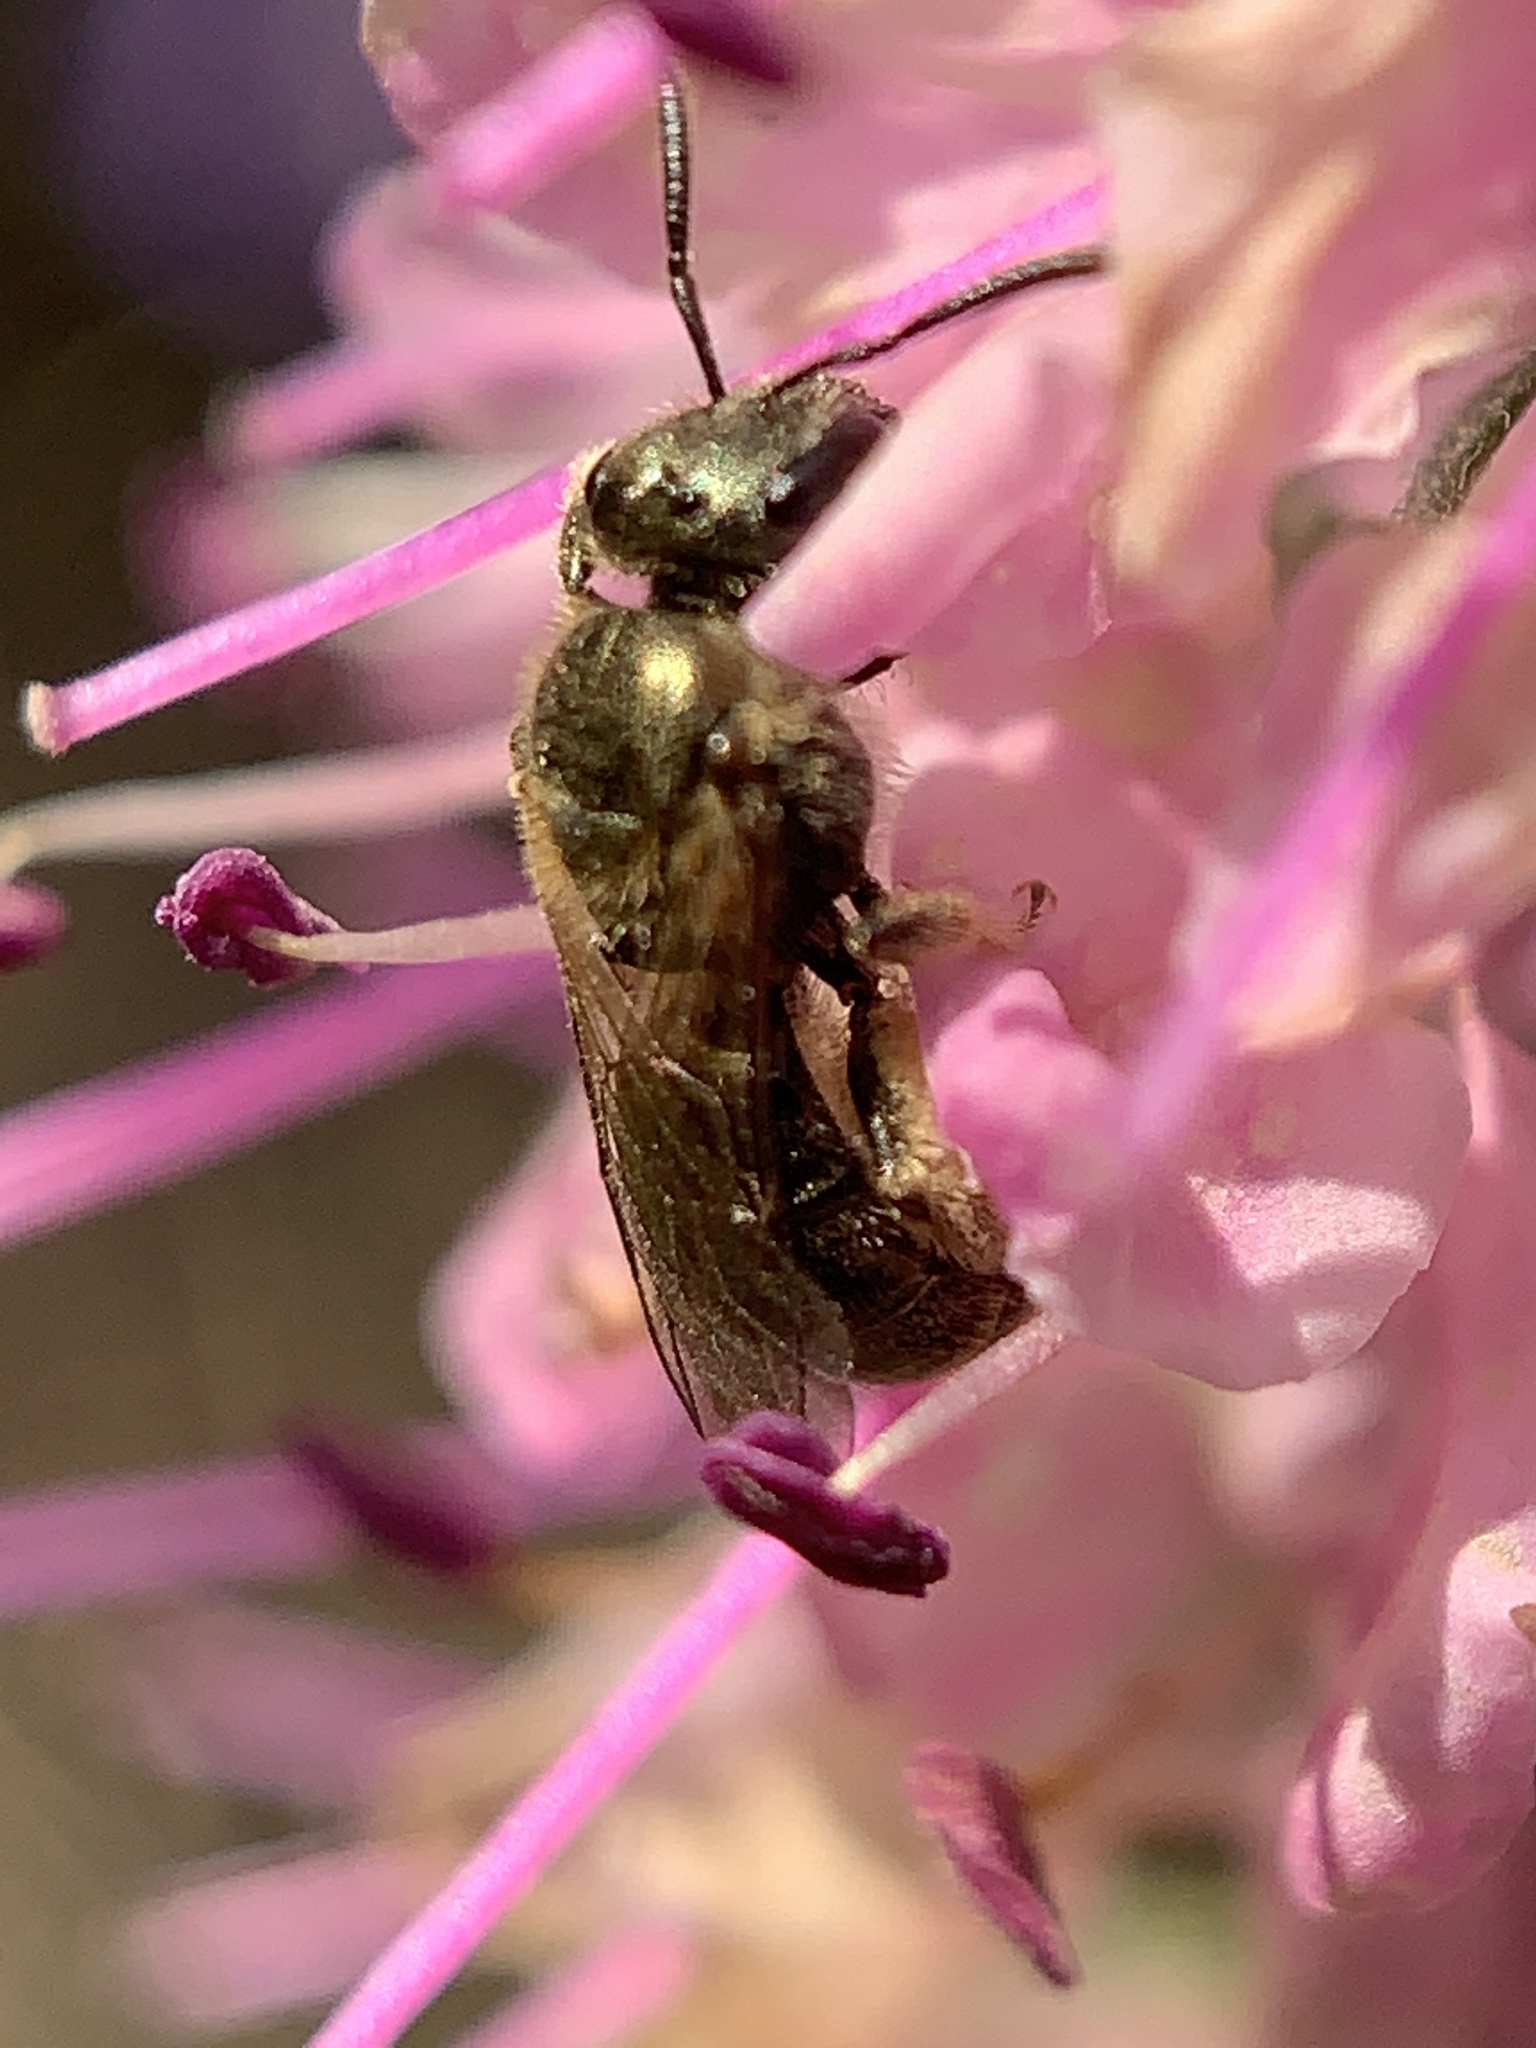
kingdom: Animalia
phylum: Arthropoda
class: Insecta
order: Hymenoptera
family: Halictidae
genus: Dialictus
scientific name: Dialictus
